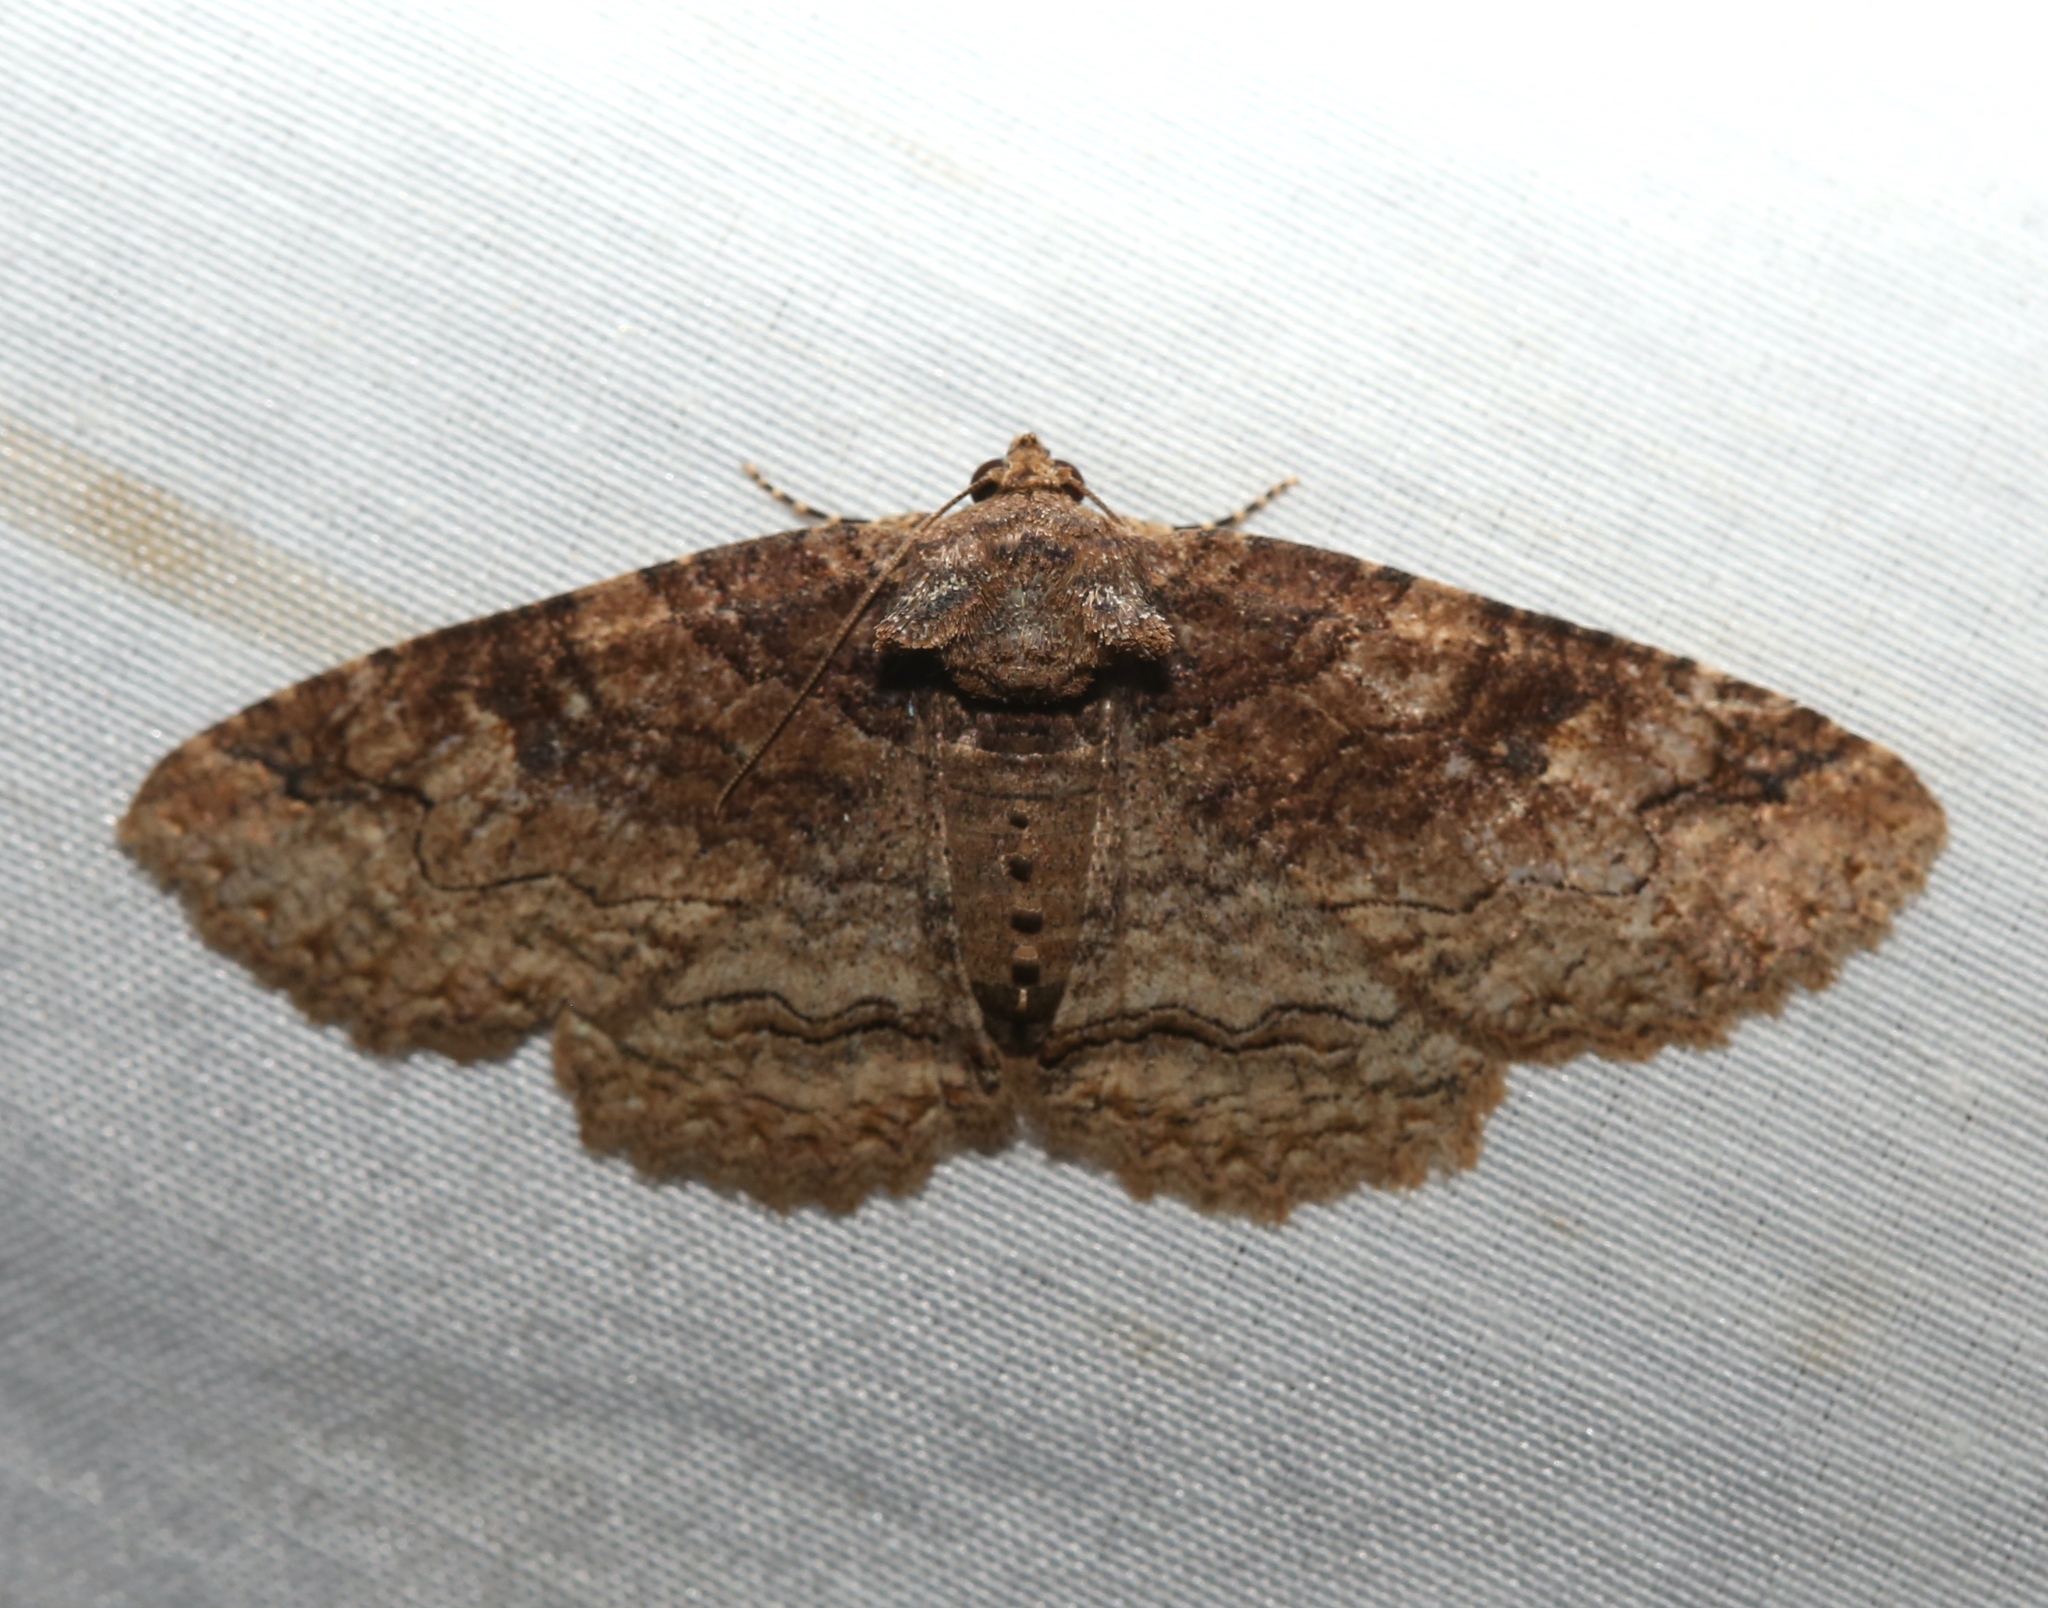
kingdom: Animalia
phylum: Arthropoda
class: Insecta
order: Lepidoptera
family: Erebidae
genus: Zale
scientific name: Zale phaeocapna
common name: Hazel zale moth
